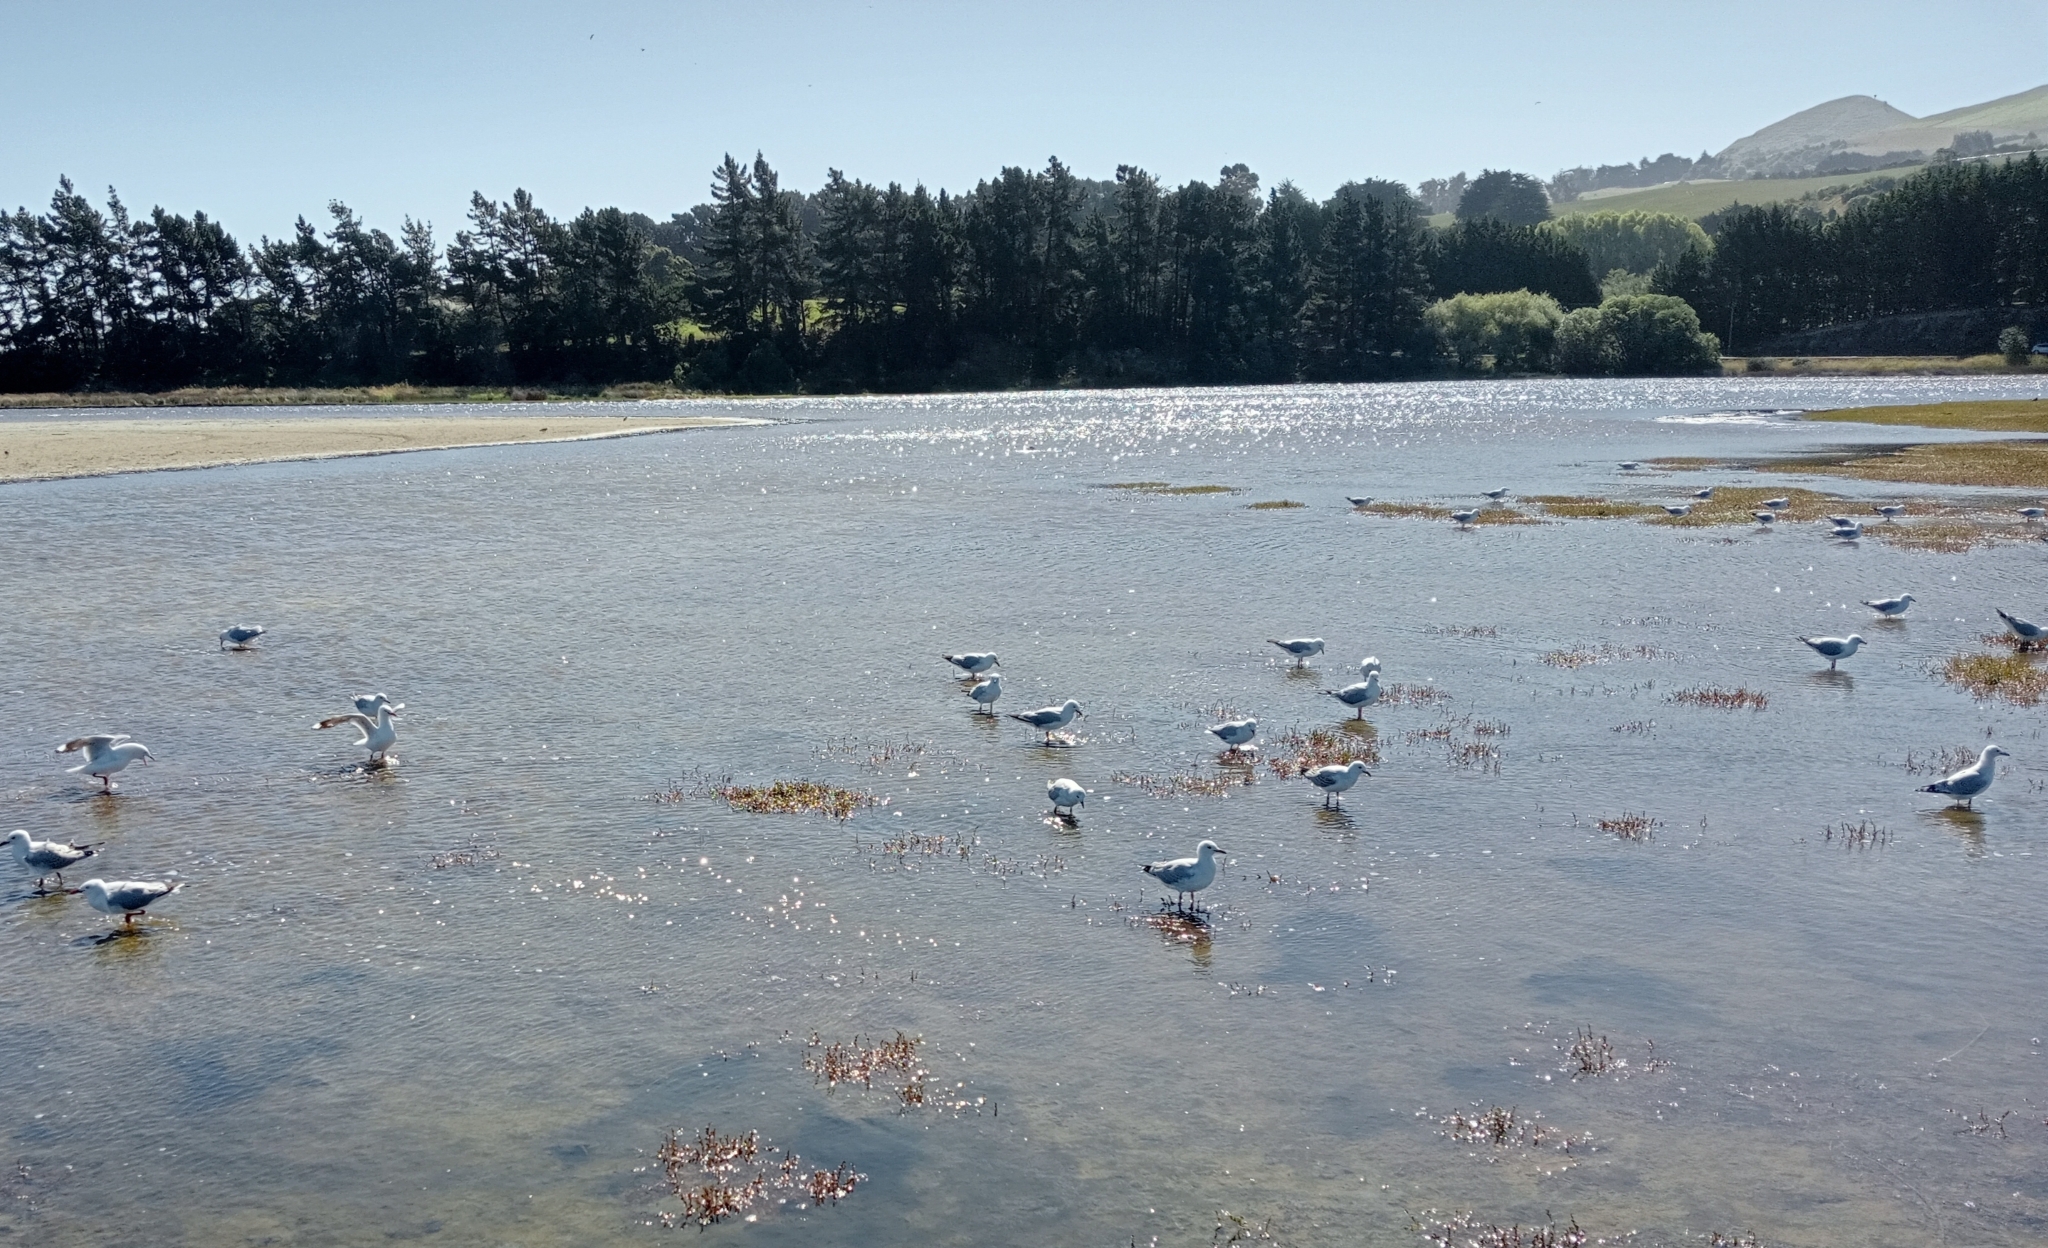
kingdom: Animalia
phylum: Chordata
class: Aves
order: Charadriiformes
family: Laridae
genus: Chroicocephalus
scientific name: Chroicocephalus novaehollandiae
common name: Silver gull
